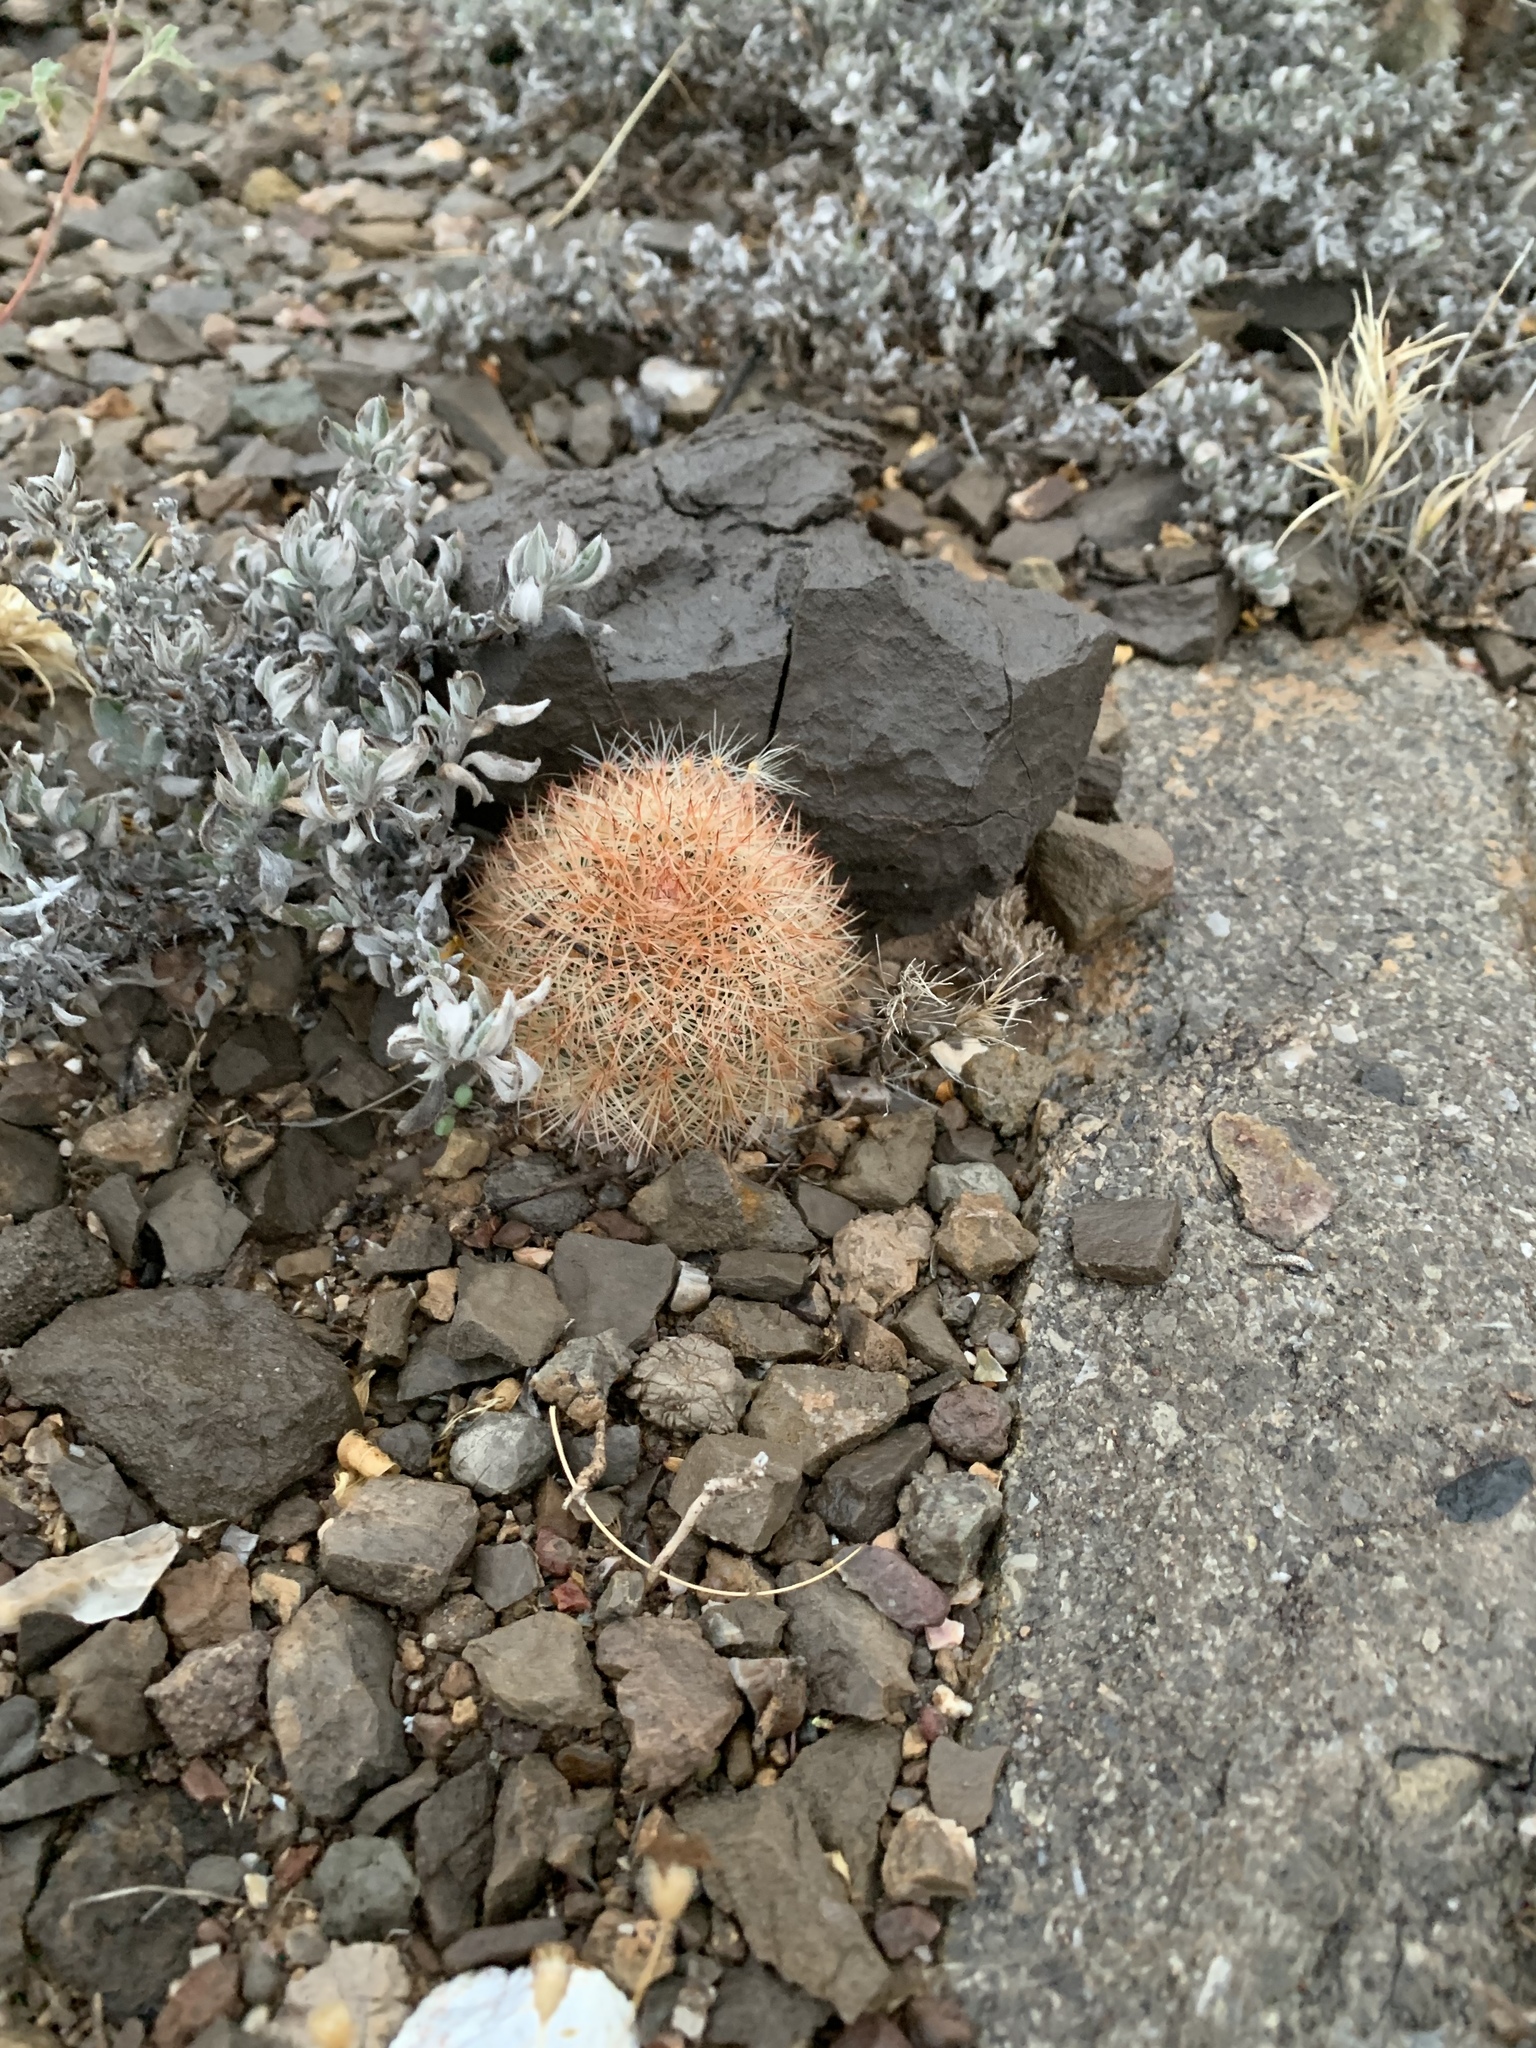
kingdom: Plantae
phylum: Tracheophyta
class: Magnoliopsida
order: Caryophyllales
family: Cactaceae
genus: Echinocereus
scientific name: Echinocereus dasyacanthus
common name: Spiny hedgehog cactus
